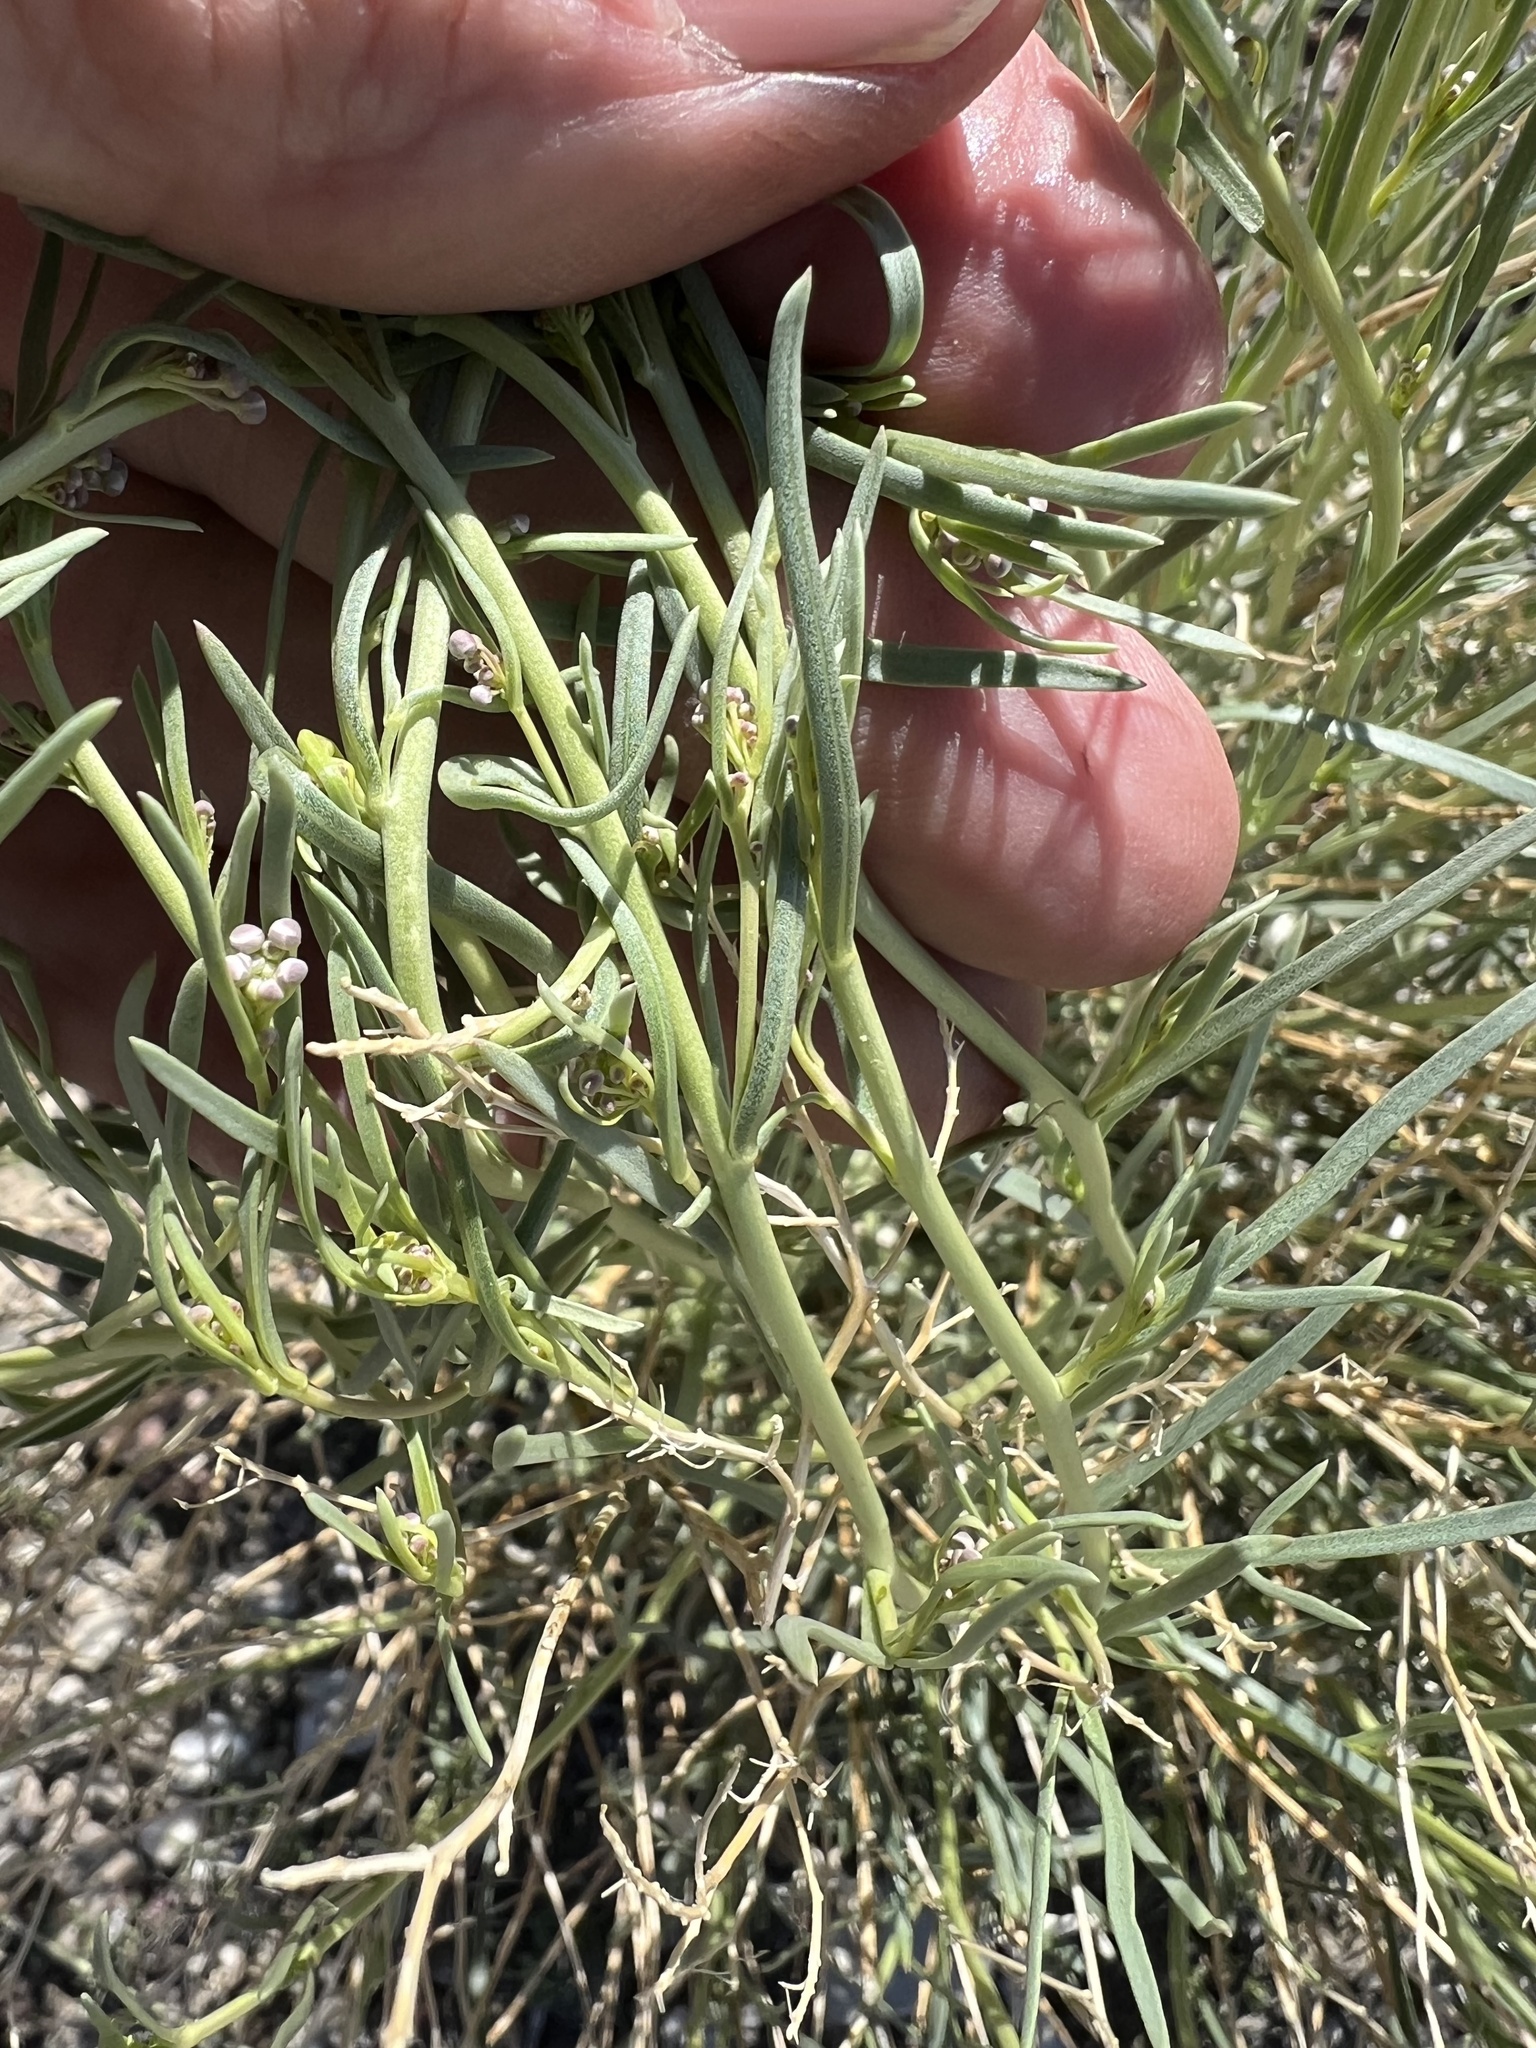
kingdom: Plantae
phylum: Tracheophyta
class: Magnoliopsida
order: Brassicales
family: Brassicaceae
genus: Lepidium
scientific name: Lepidium fremontii
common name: Fremont's pepperwort
